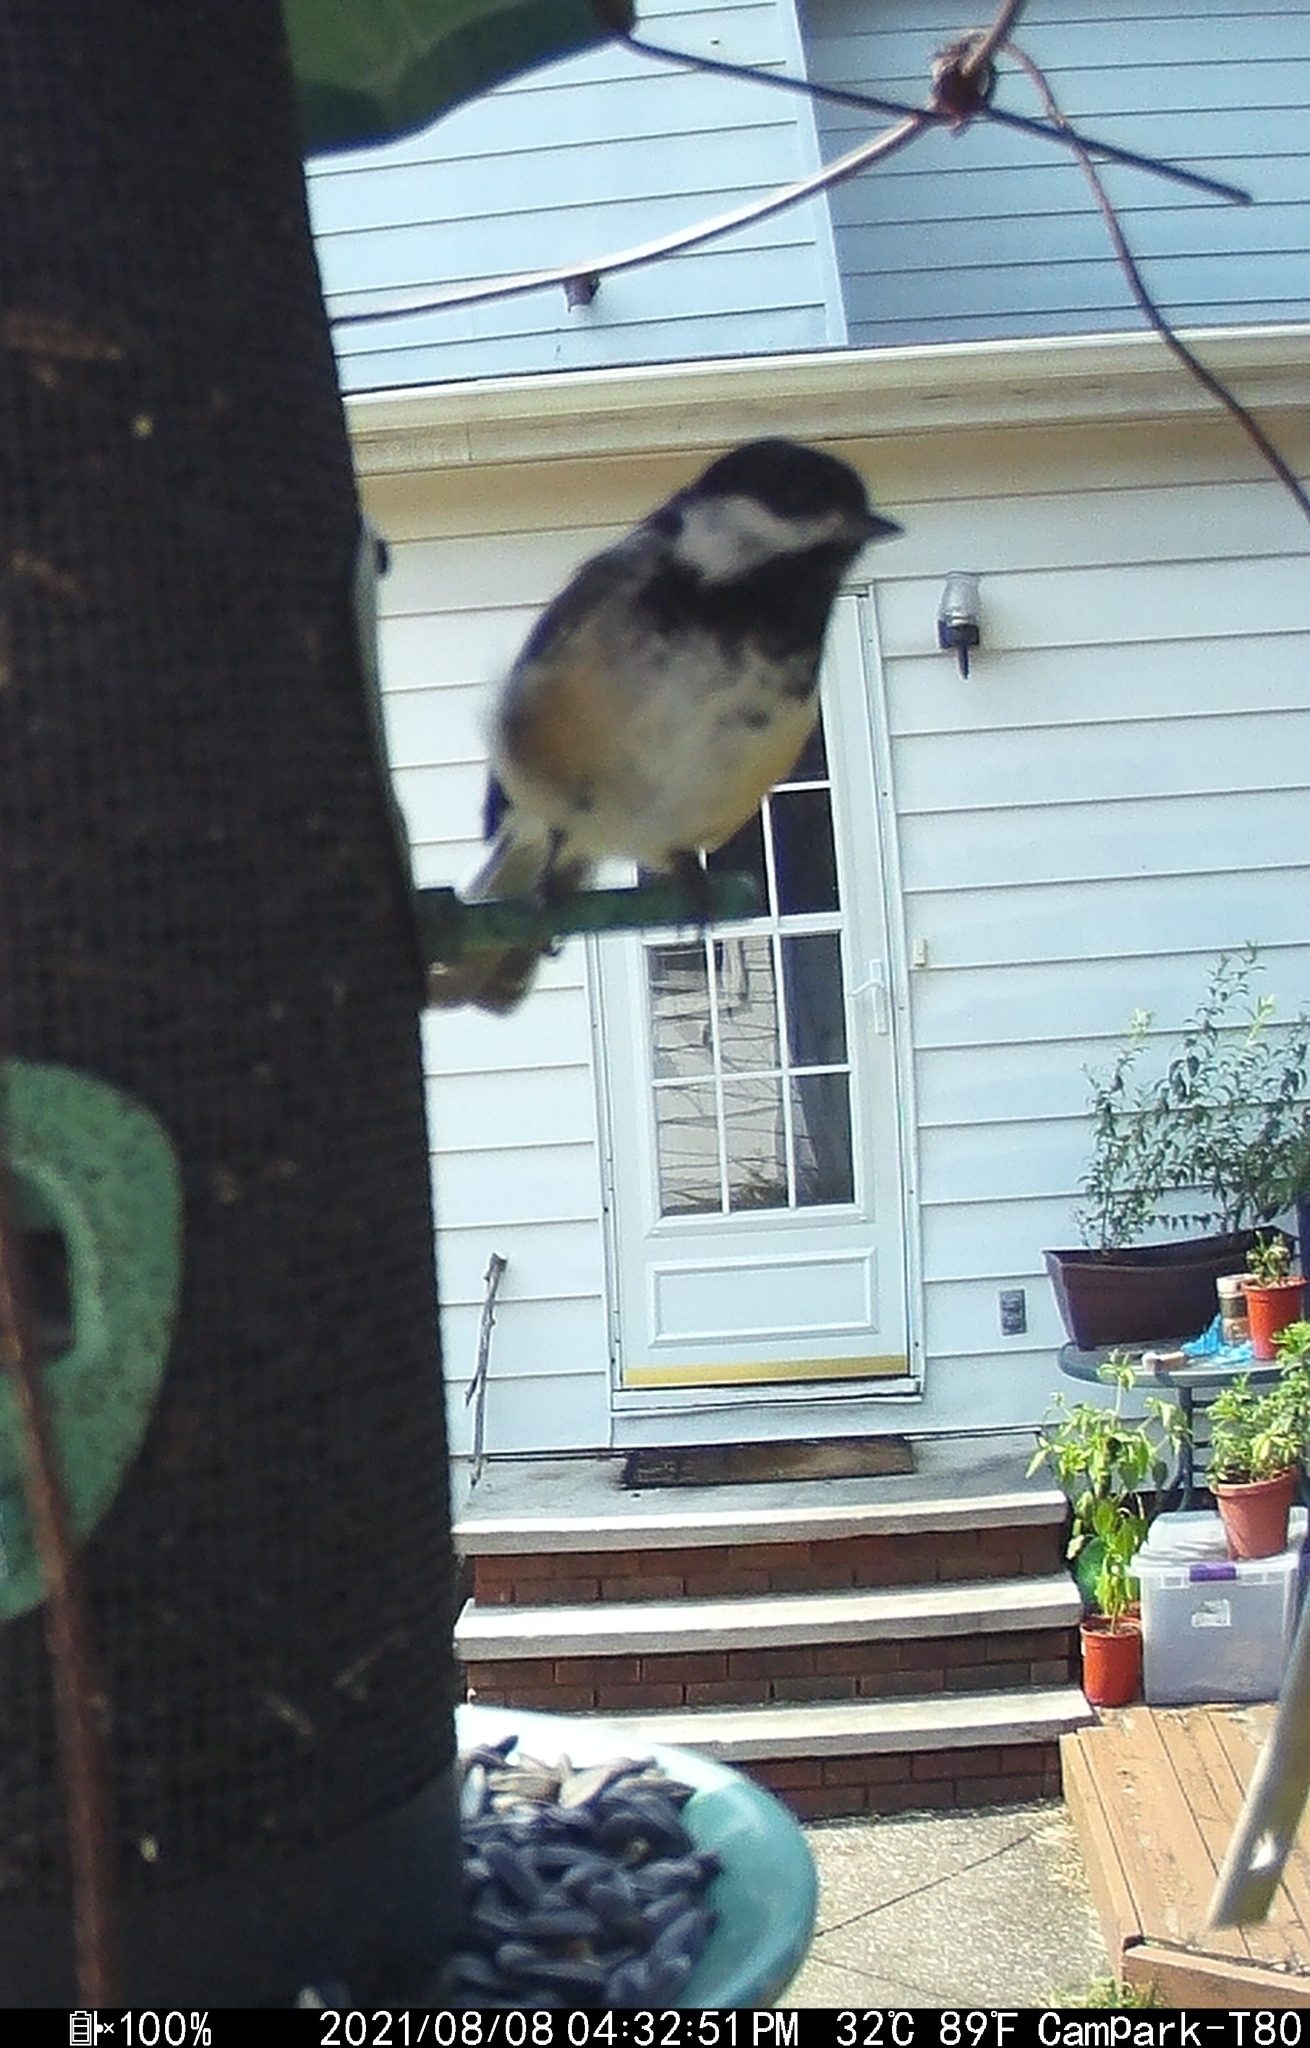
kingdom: Animalia
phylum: Chordata
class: Aves
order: Passeriformes
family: Paridae
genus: Poecile
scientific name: Poecile atricapillus
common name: Black-capped chickadee
